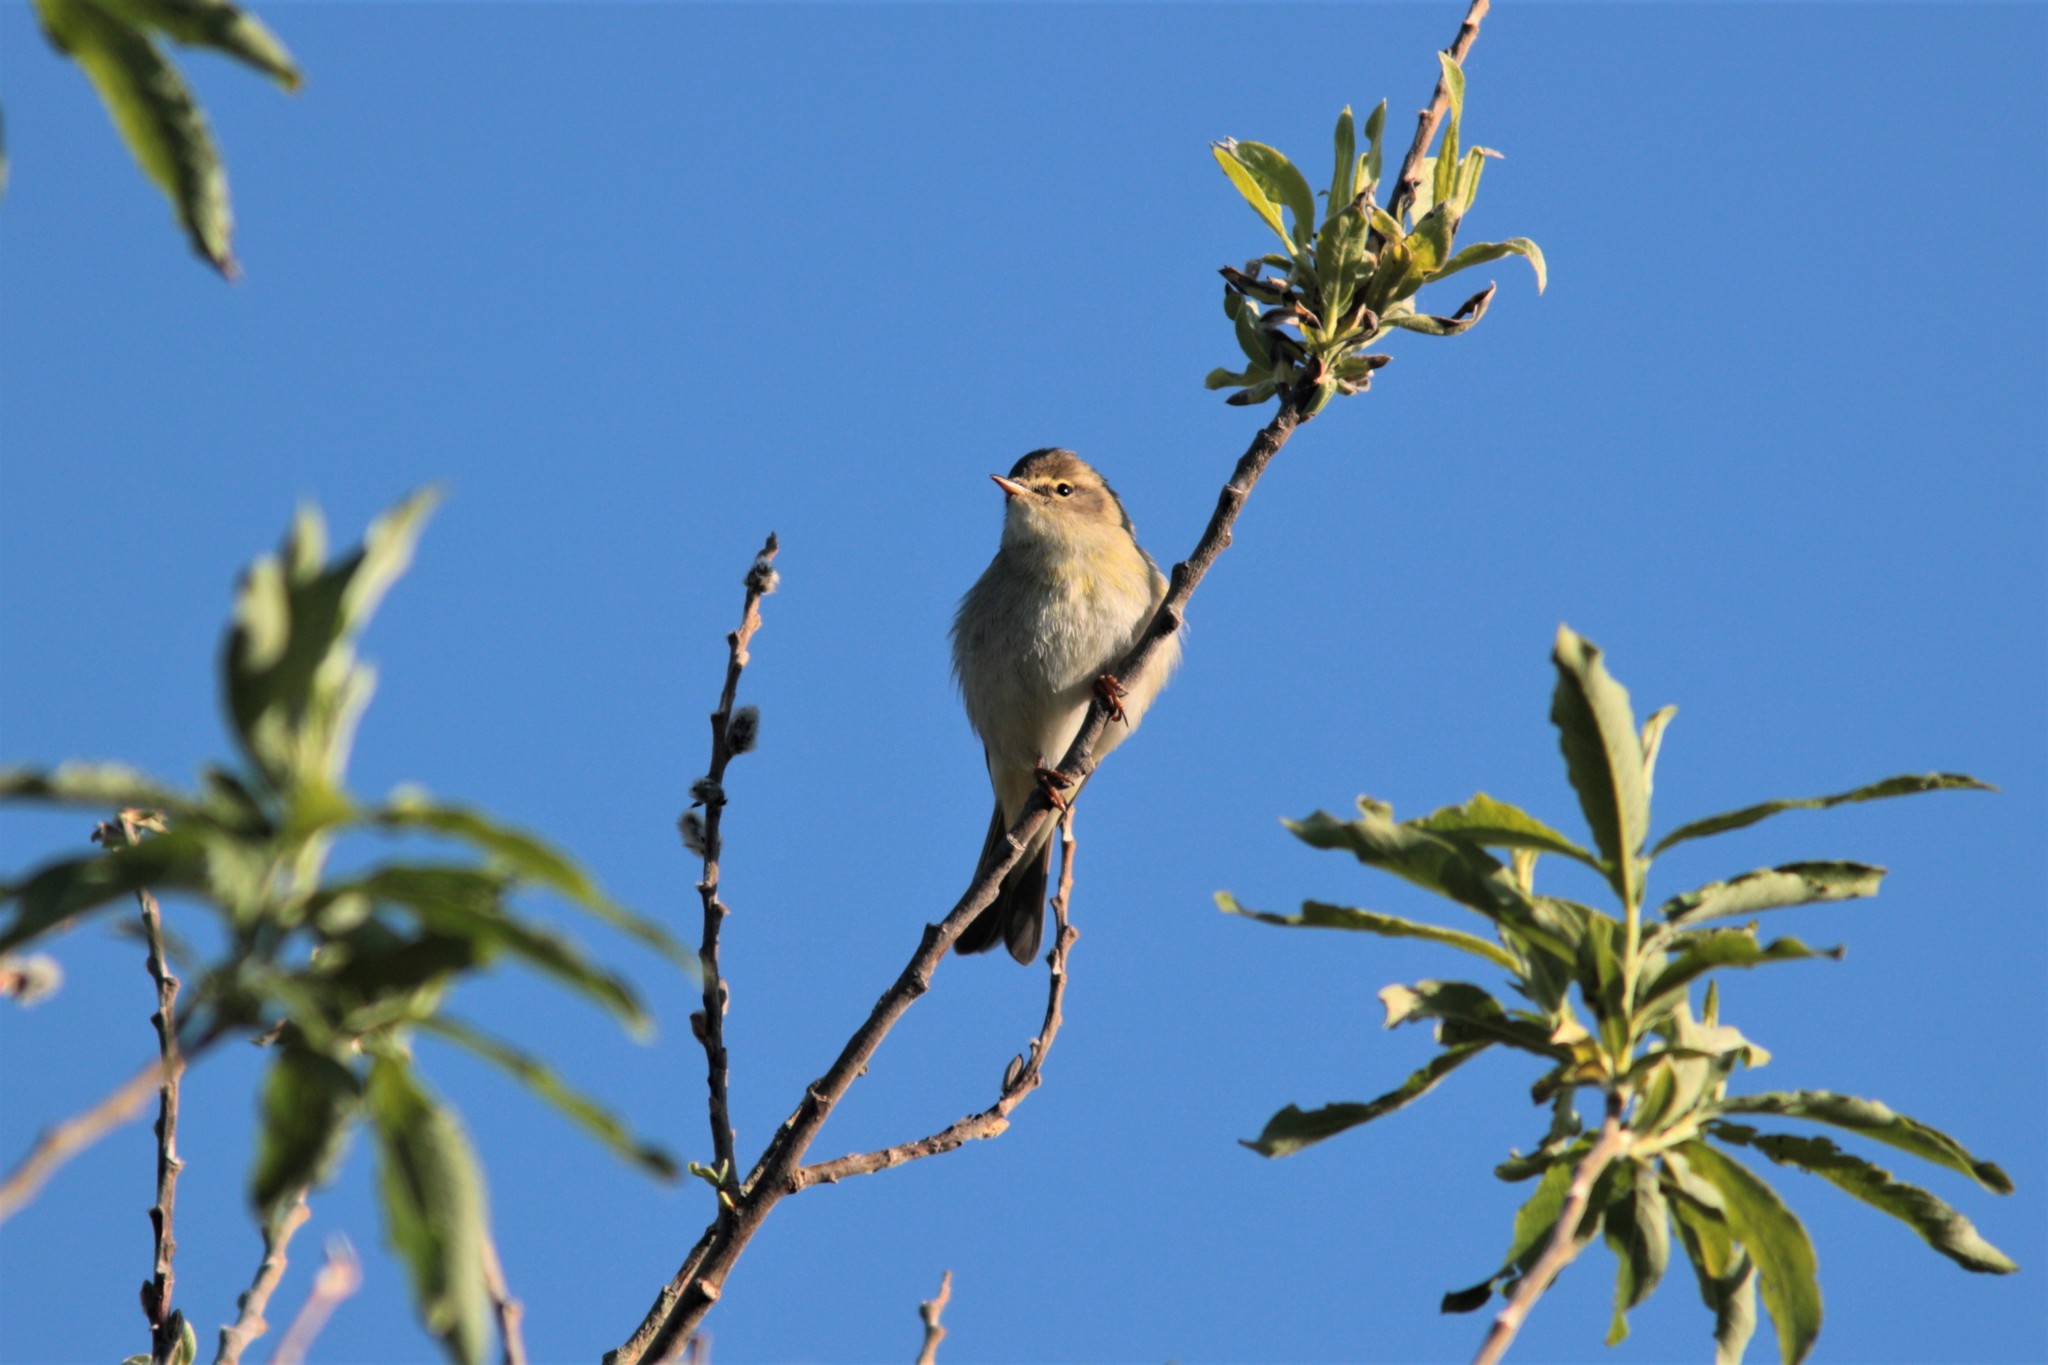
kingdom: Animalia
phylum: Chordata
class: Aves
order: Passeriformes
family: Phylloscopidae
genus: Phylloscopus
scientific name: Phylloscopus trochilus
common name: Willow warbler
